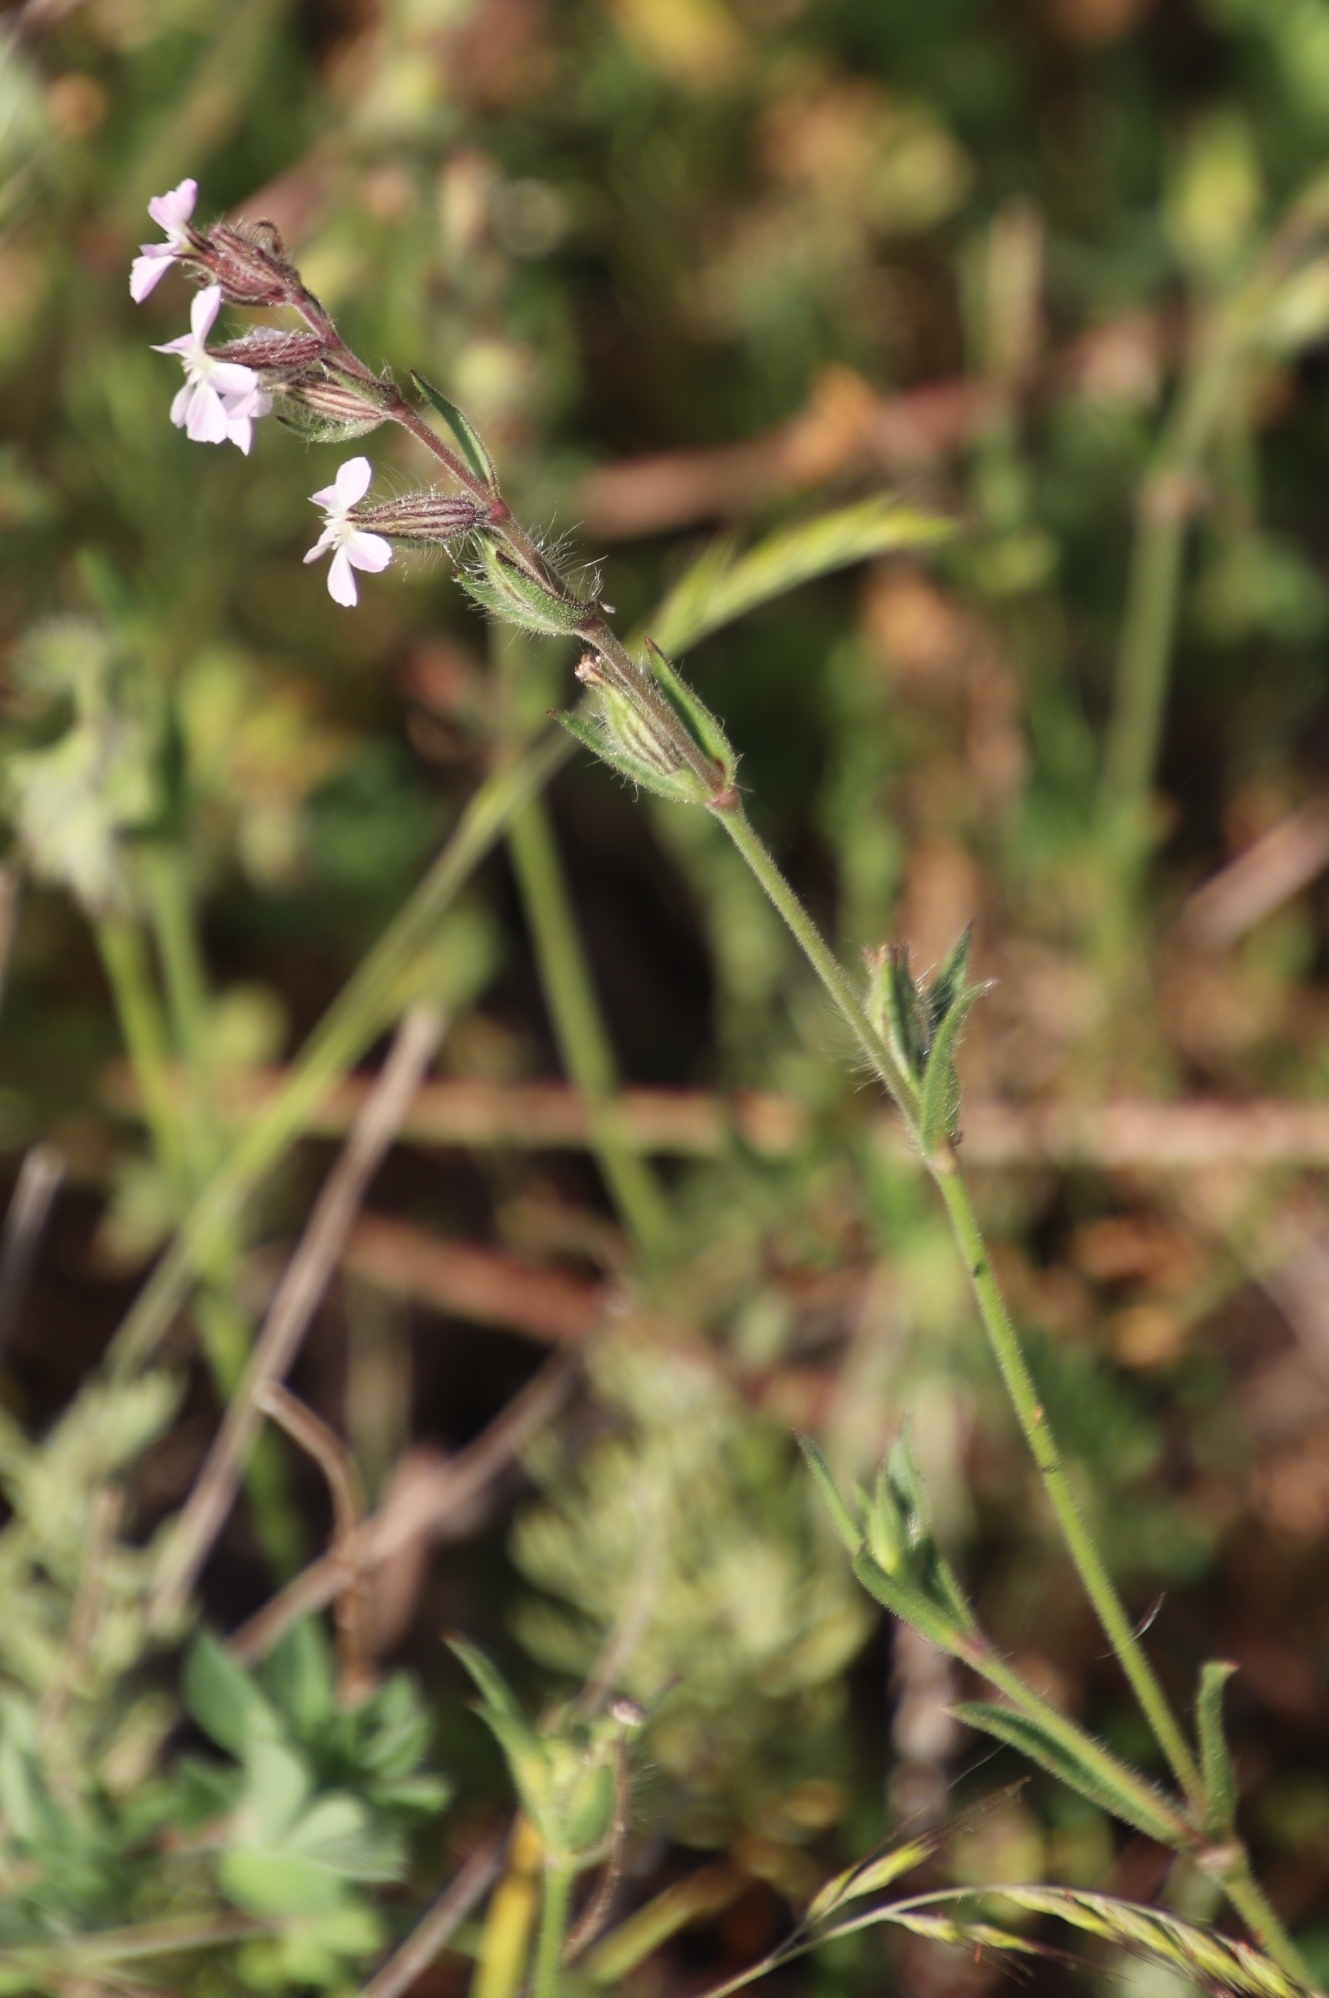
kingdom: Plantae
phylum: Tracheophyta
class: Magnoliopsida
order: Caryophyllales
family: Caryophyllaceae
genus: Silene
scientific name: Silene gallica
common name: Small-flowered catchfly
